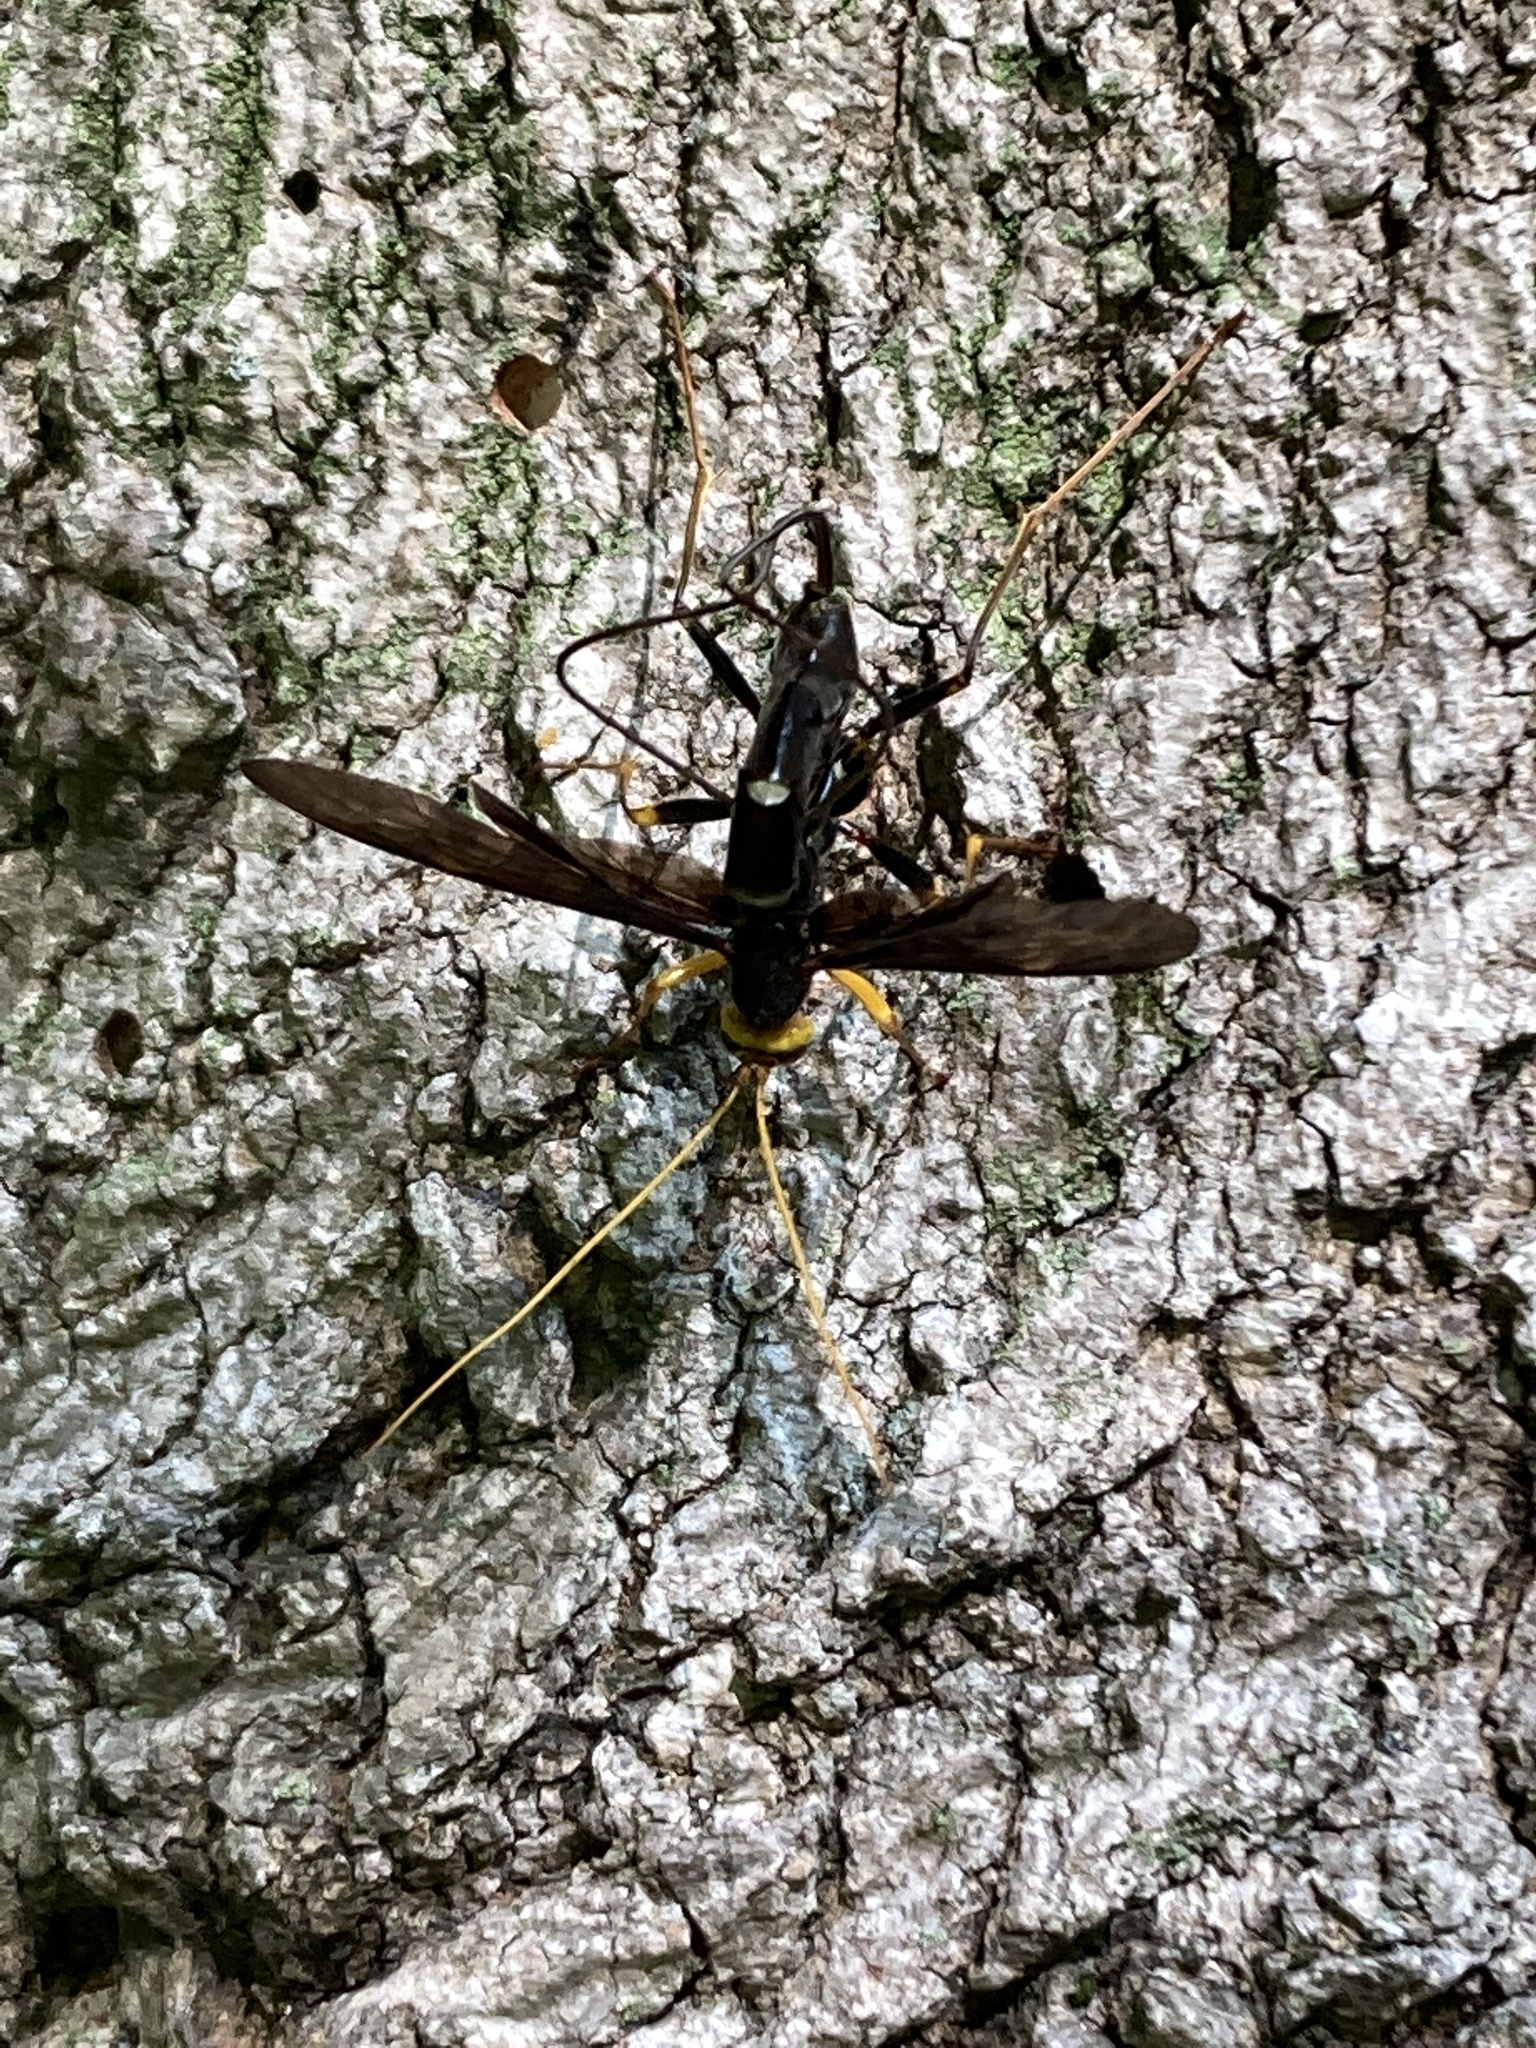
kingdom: Animalia
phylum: Arthropoda
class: Insecta
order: Hymenoptera
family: Ichneumonidae
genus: Megarhyssa
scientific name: Megarhyssa atrata
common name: Black giant ichneumonid wasp
